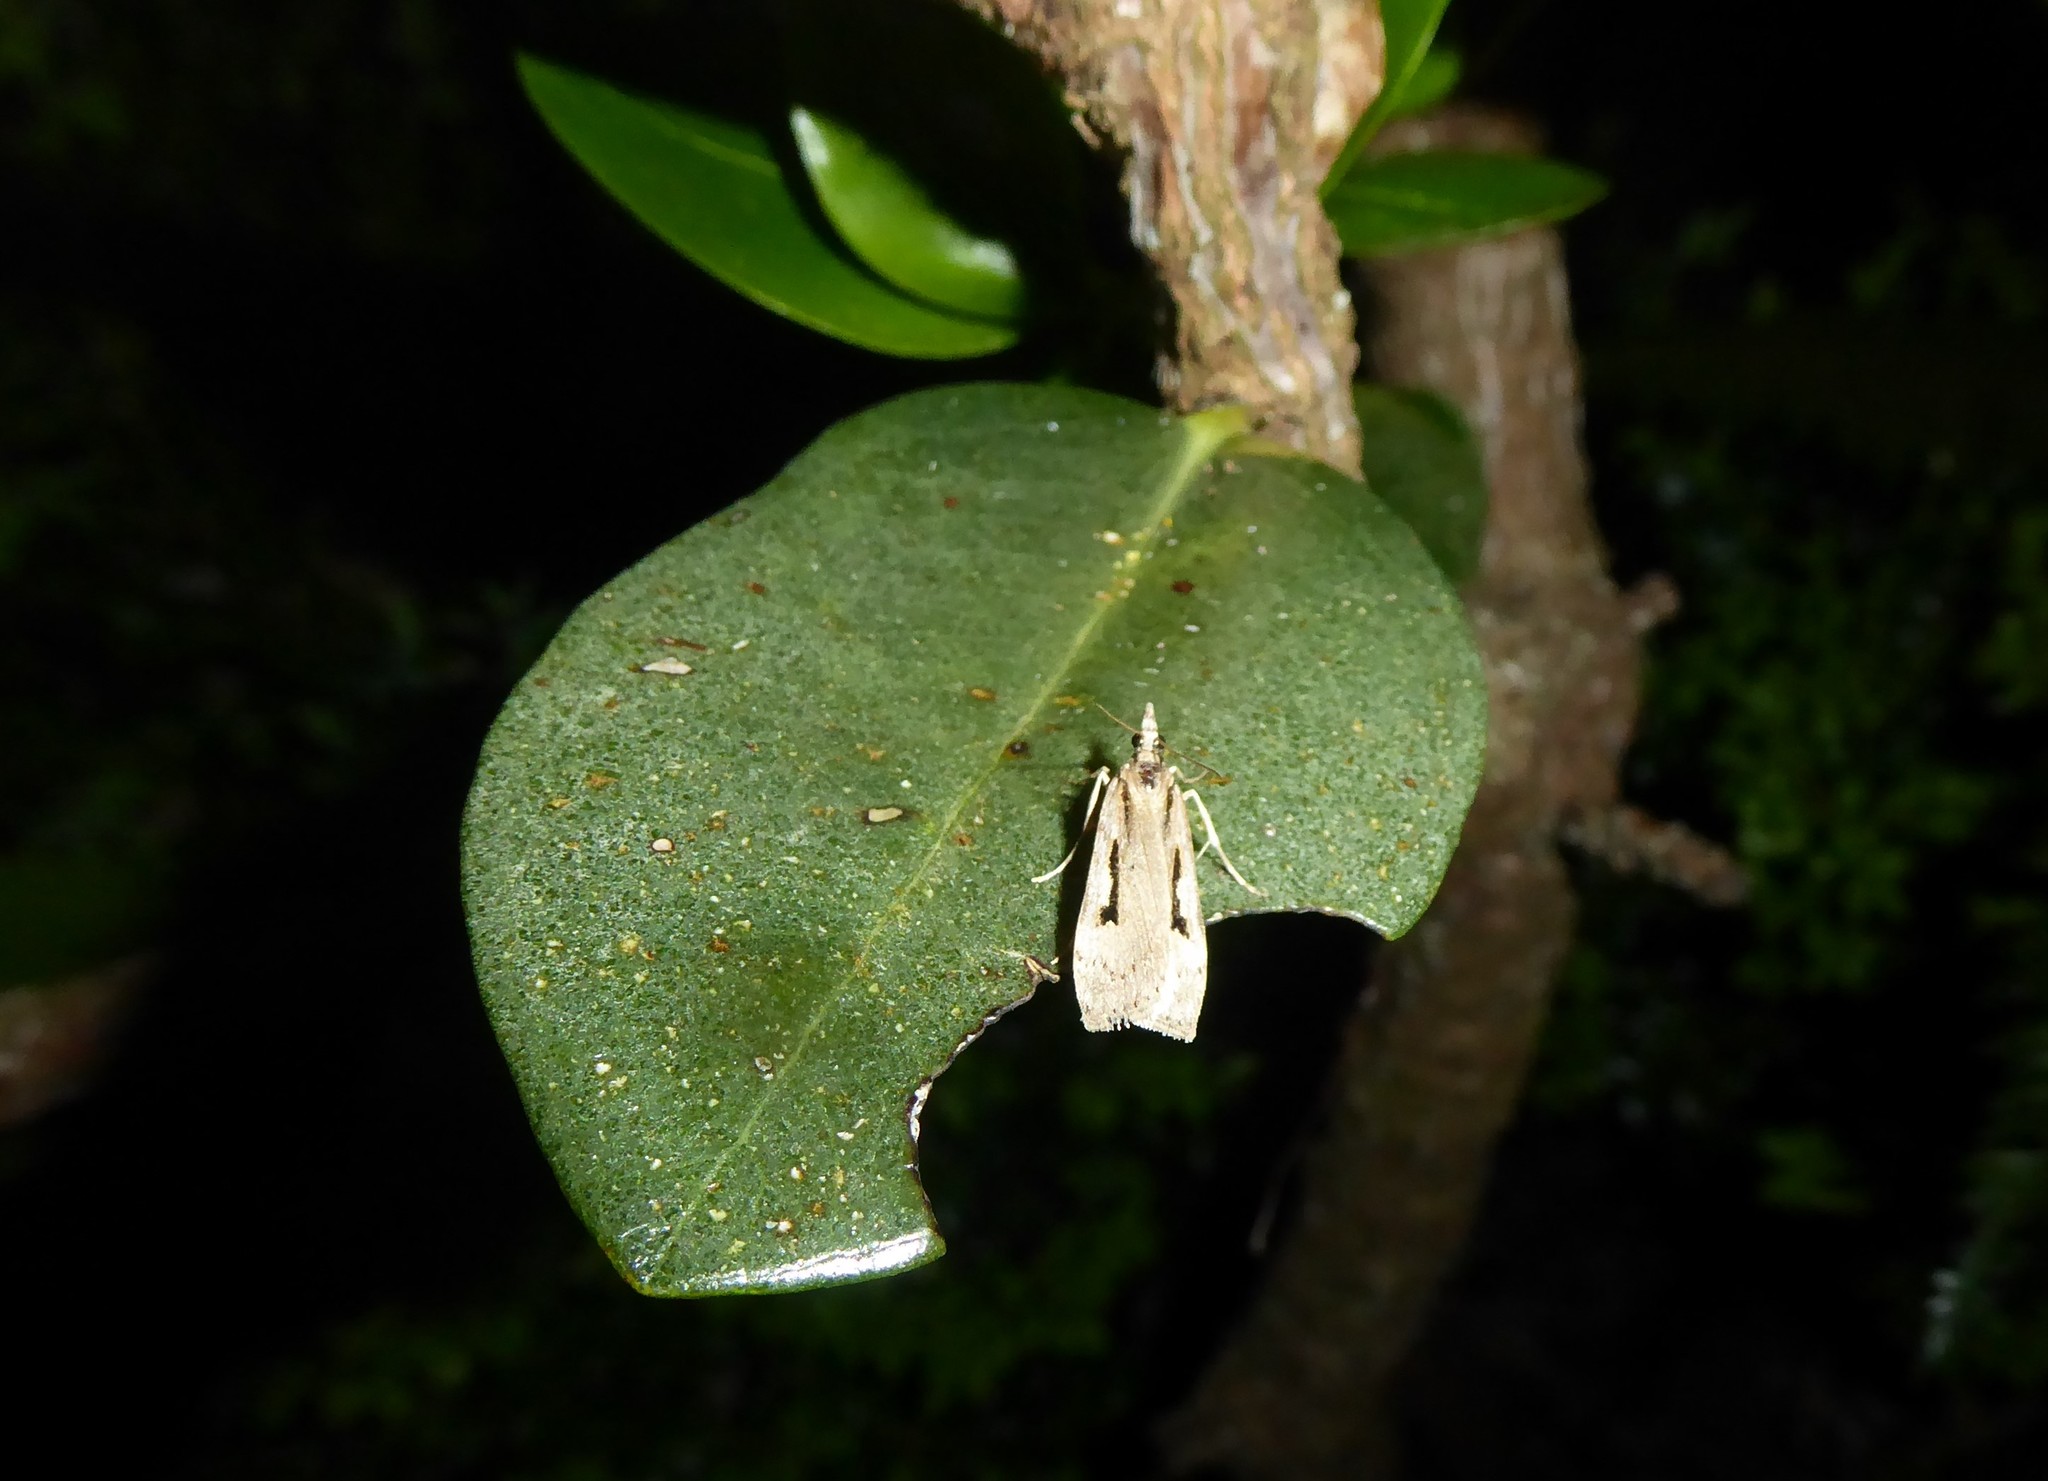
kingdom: Animalia
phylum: Arthropoda
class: Insecta
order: Lepidoptera
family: Crambidae
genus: Scoparia
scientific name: Scoparia rotuellus
